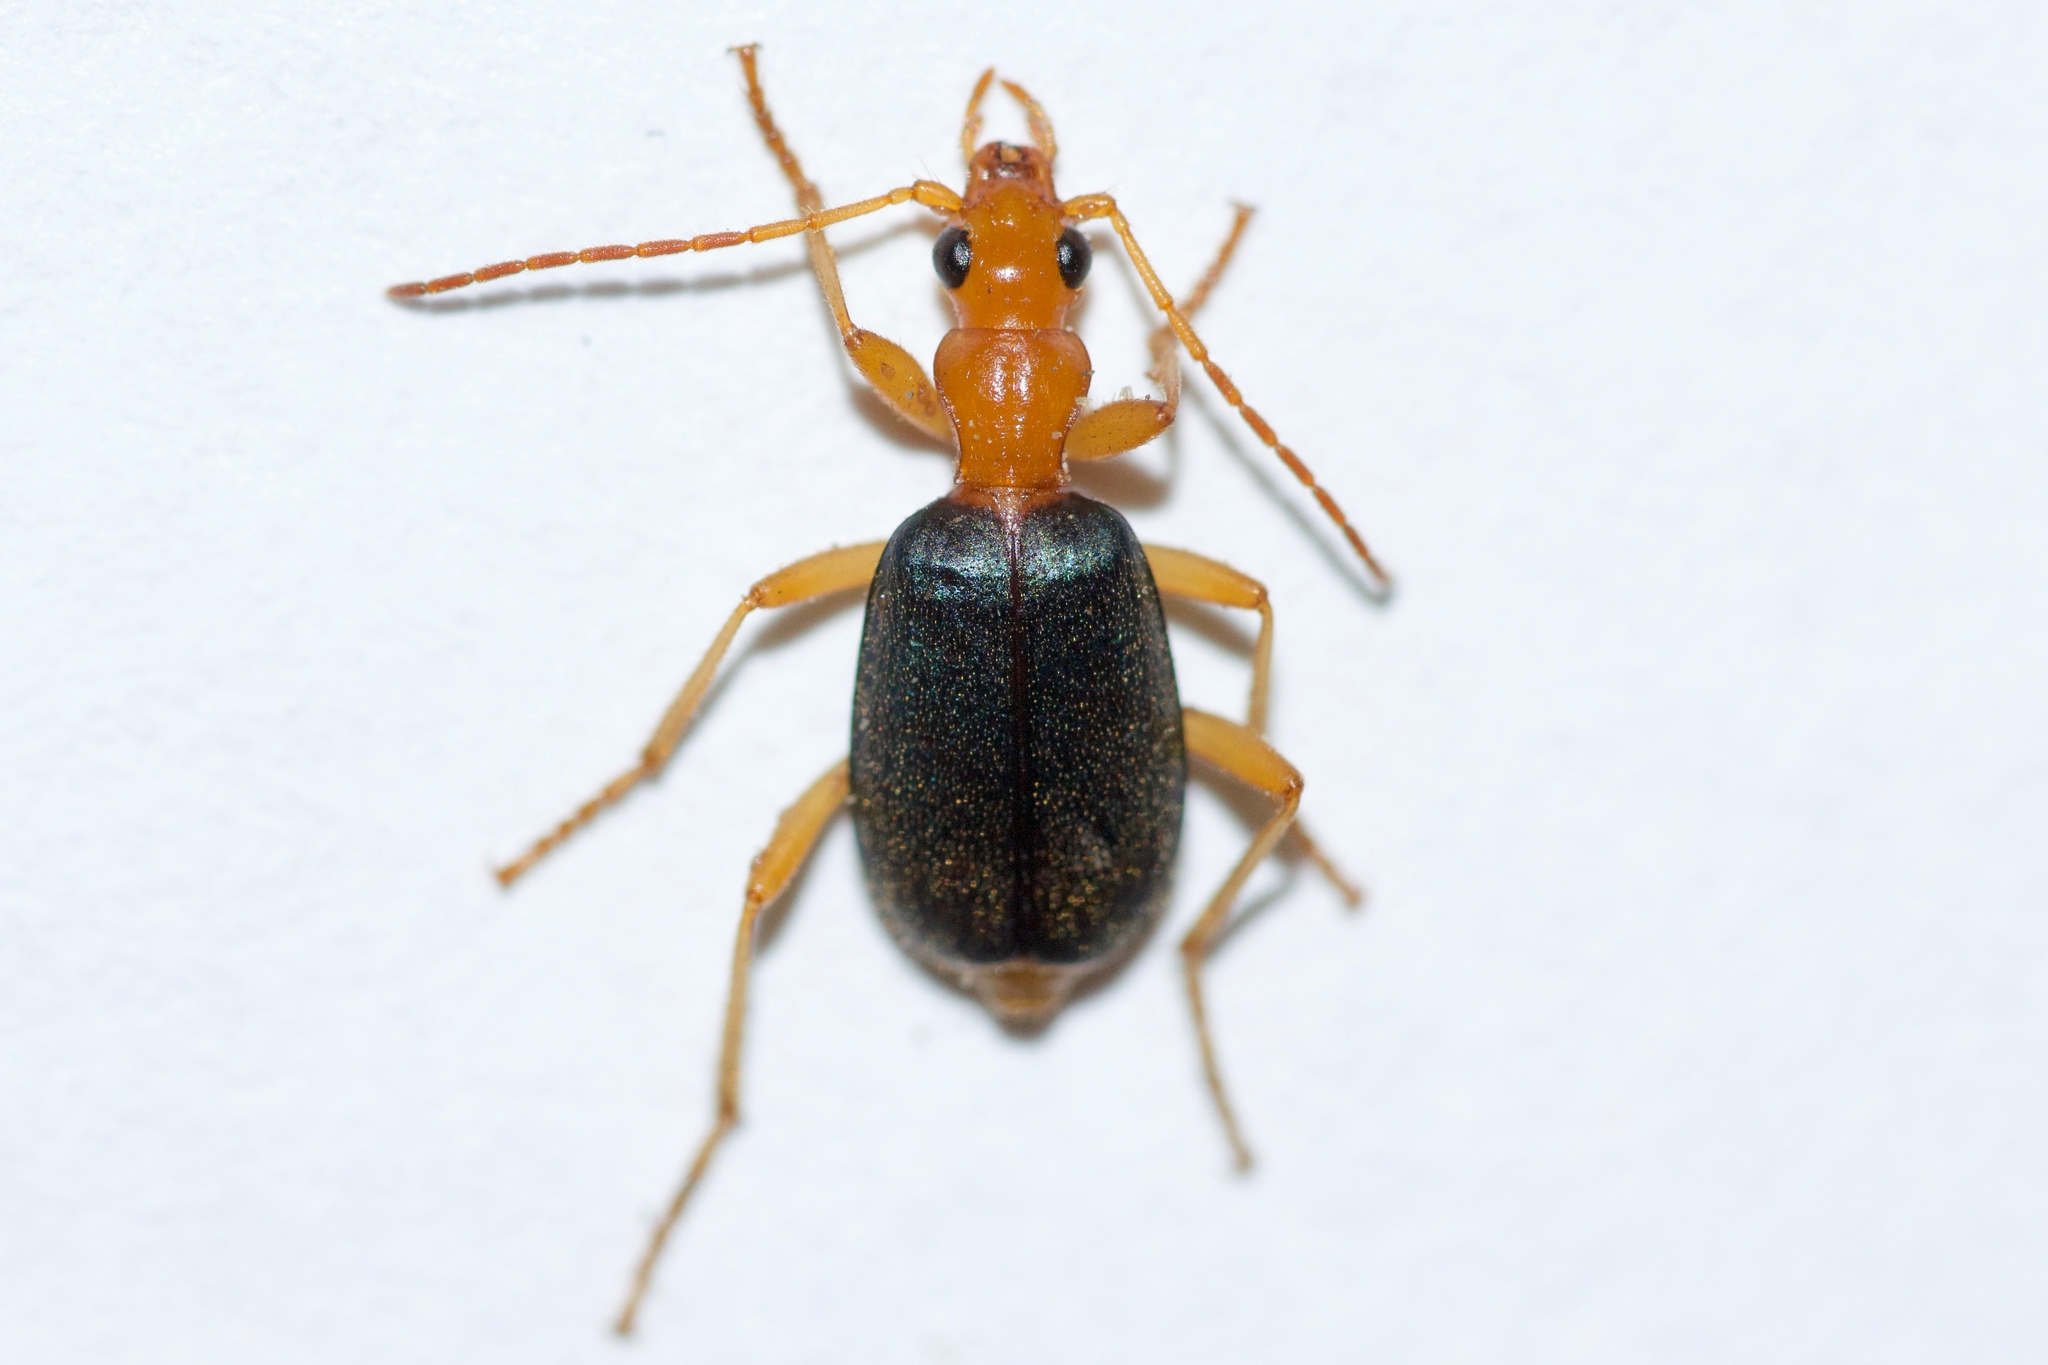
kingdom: Animalia
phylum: Arthropoda
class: Insecta
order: Coleoptera
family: Carabidae
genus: Brachinus
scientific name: Brachinus
